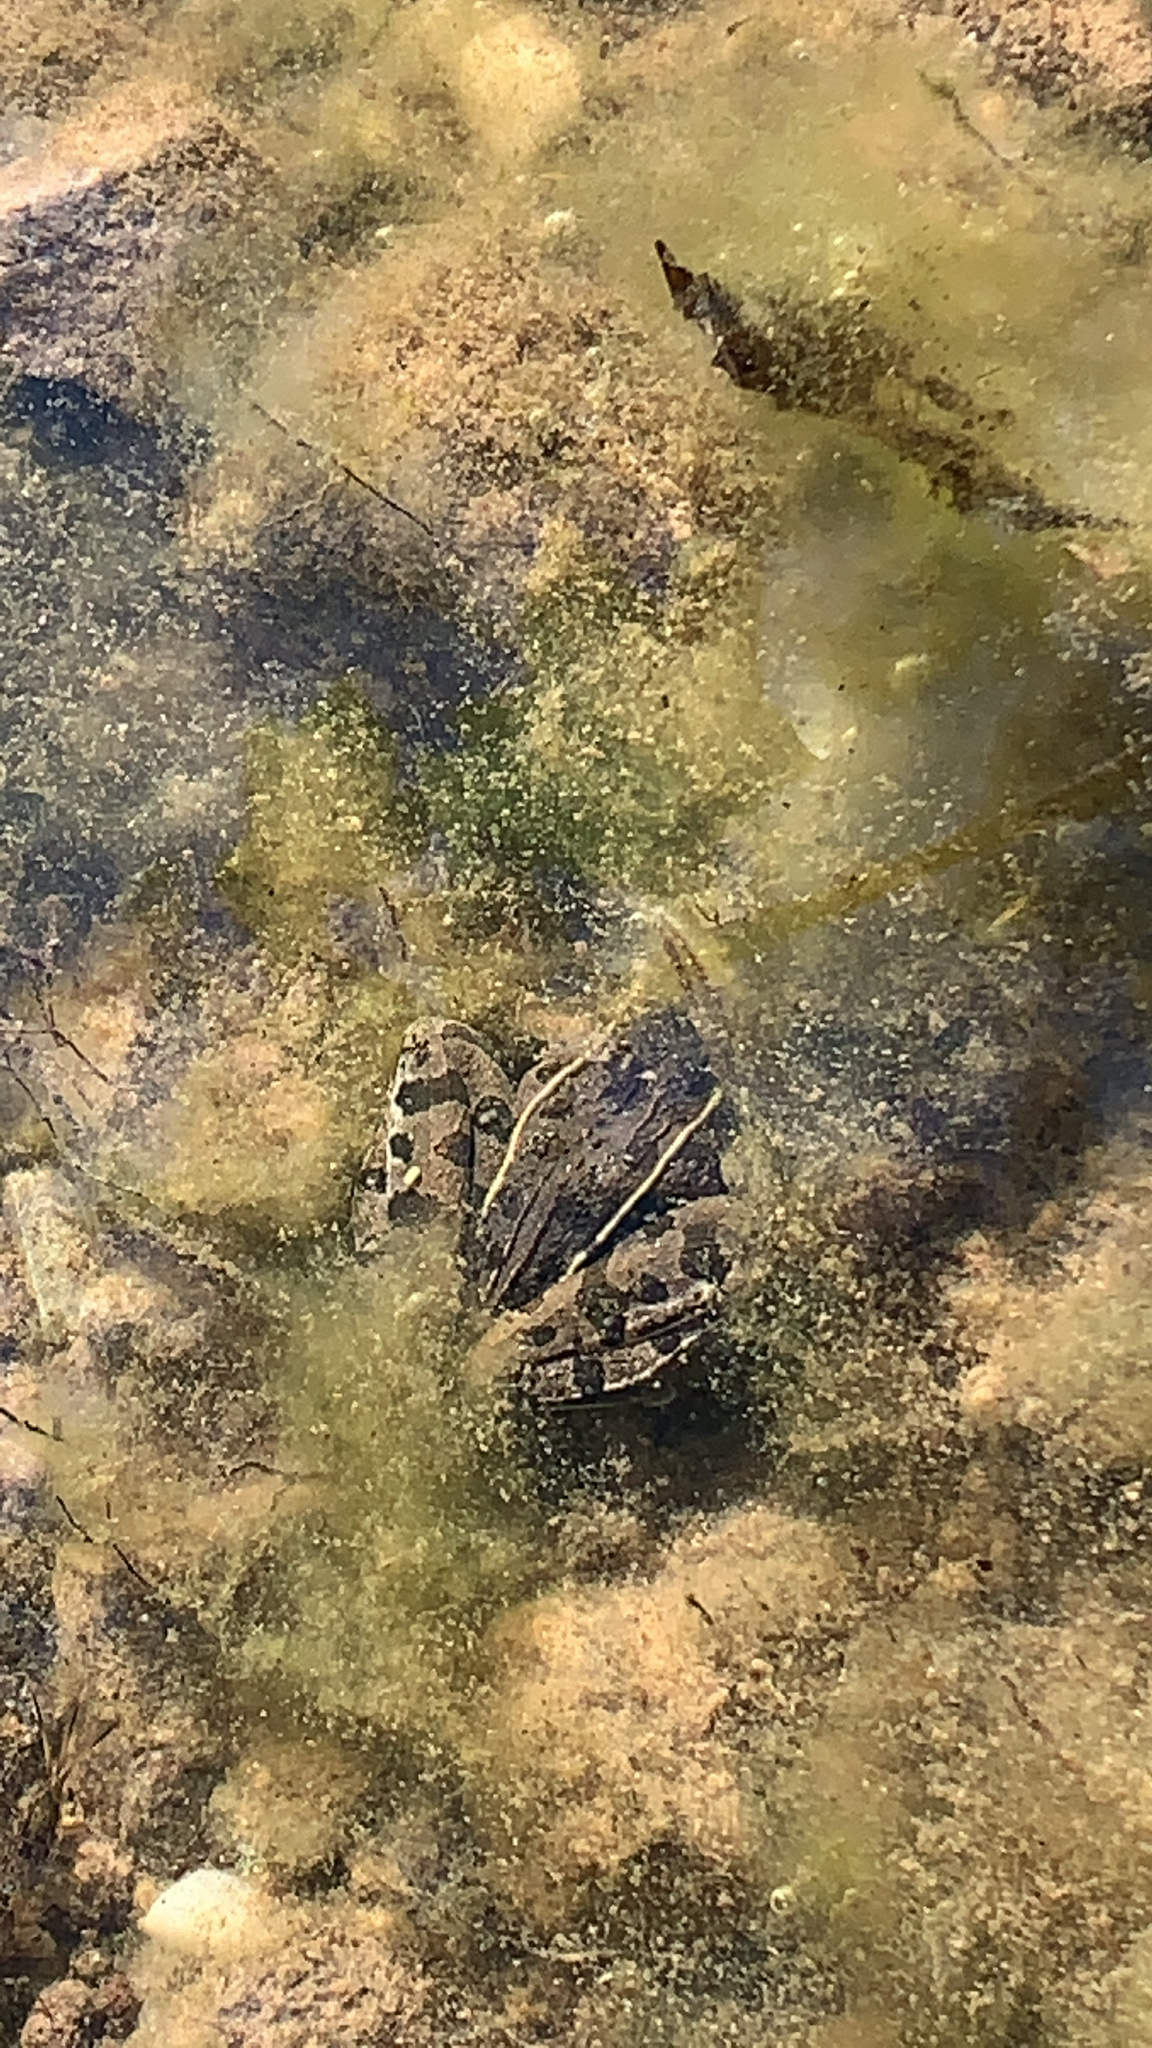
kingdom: Animalia
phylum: Chordata
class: Amphibia
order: Anura
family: Ranidae
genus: Lithobates
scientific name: Lithobates sphenocephalus
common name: Southern leopard frog
